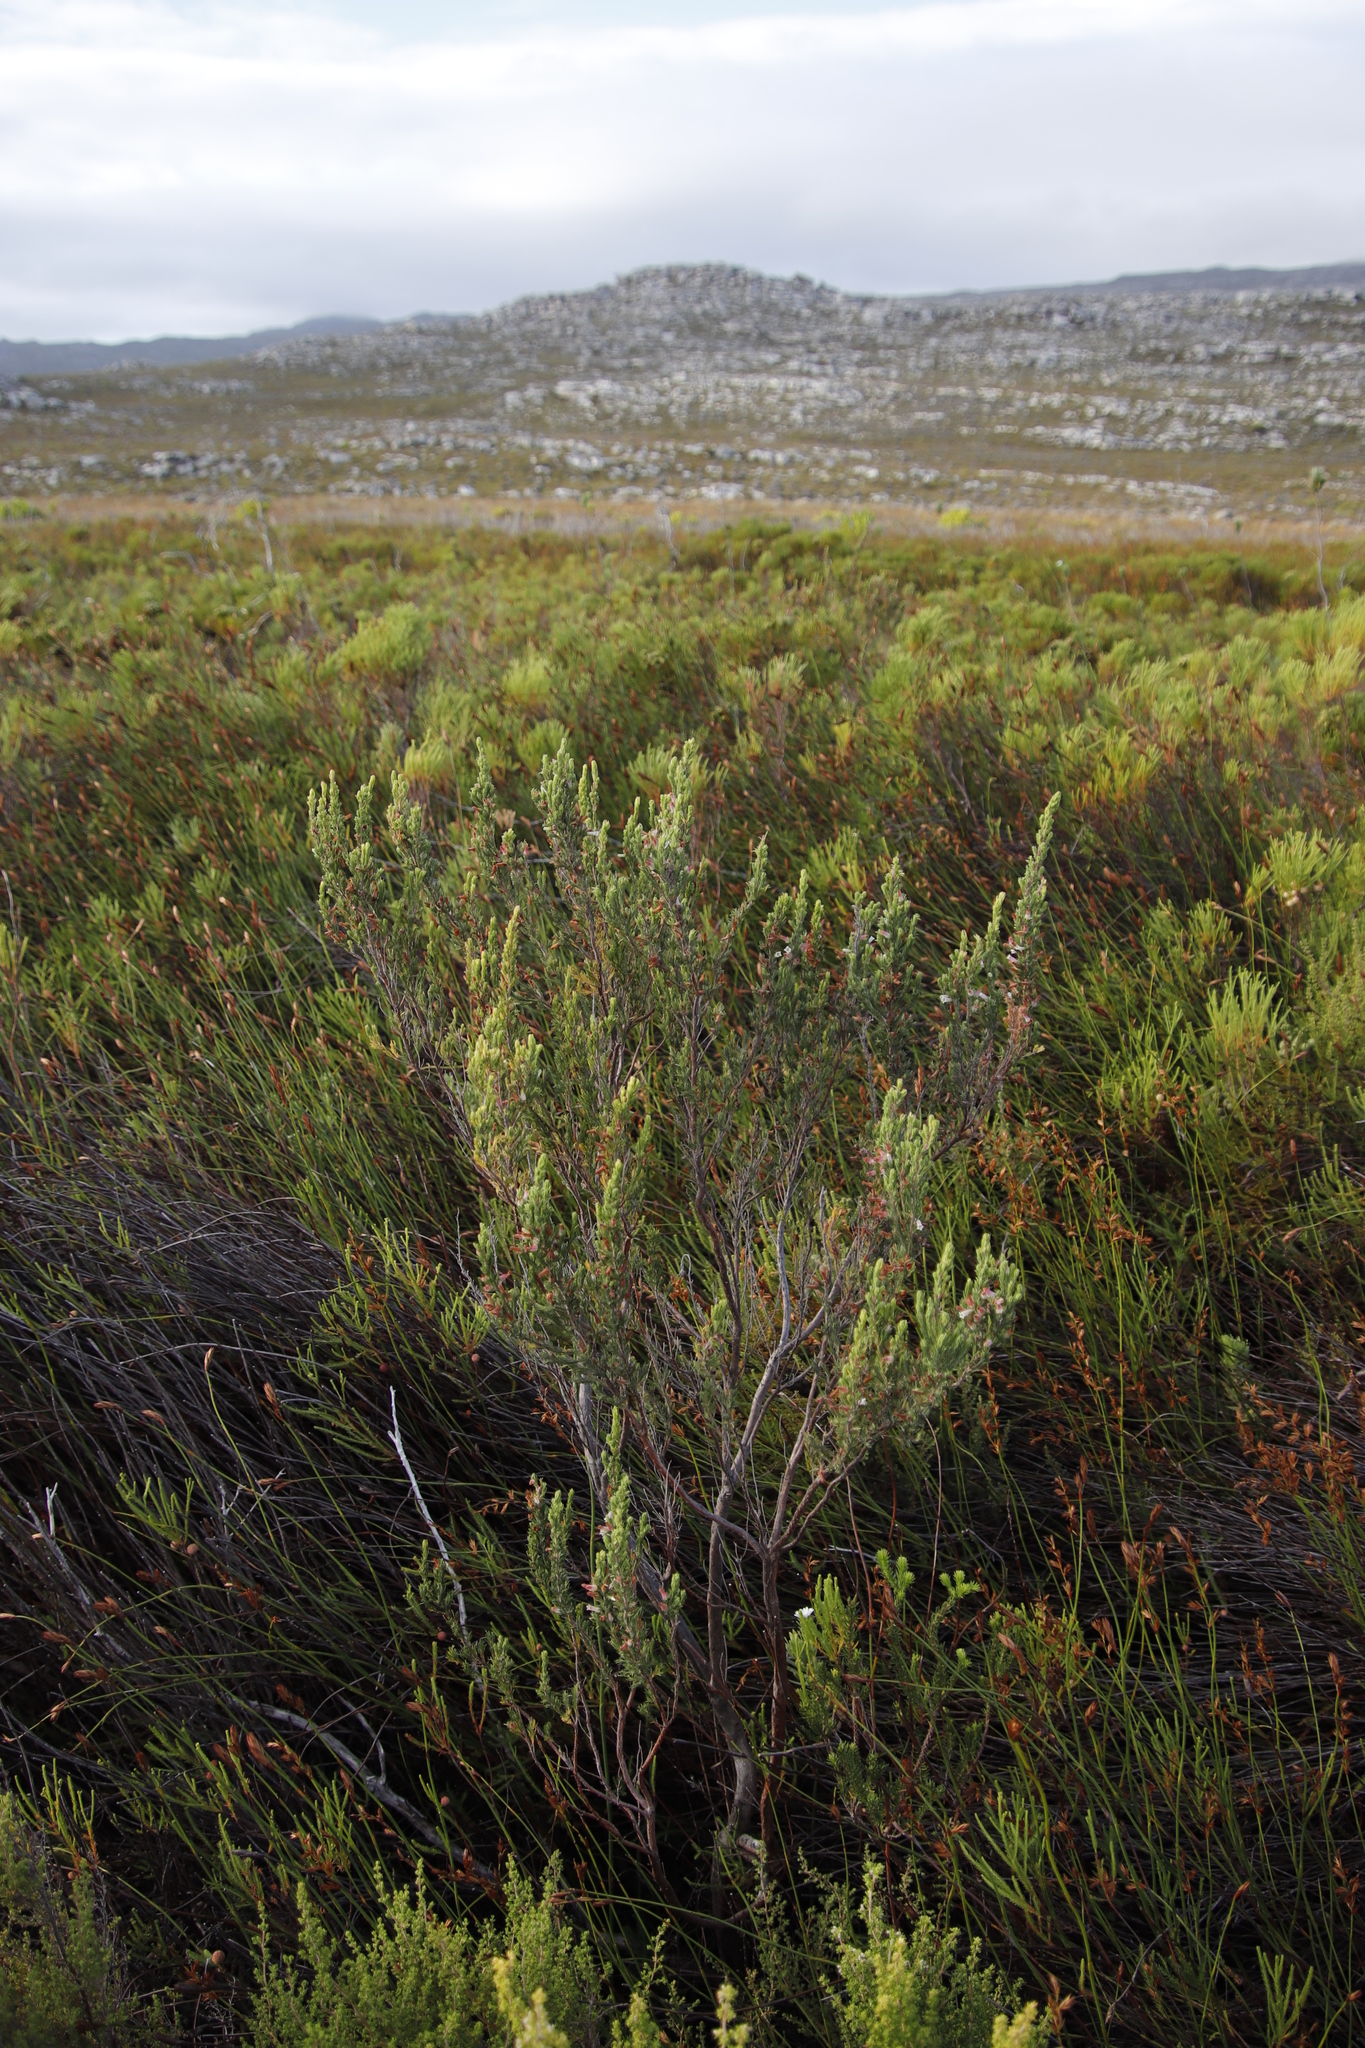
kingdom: Plantae
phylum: Tracheophyta
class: Magnoliopsida
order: Ericales
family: Ericaceae
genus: Erica
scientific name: Erica fontana
